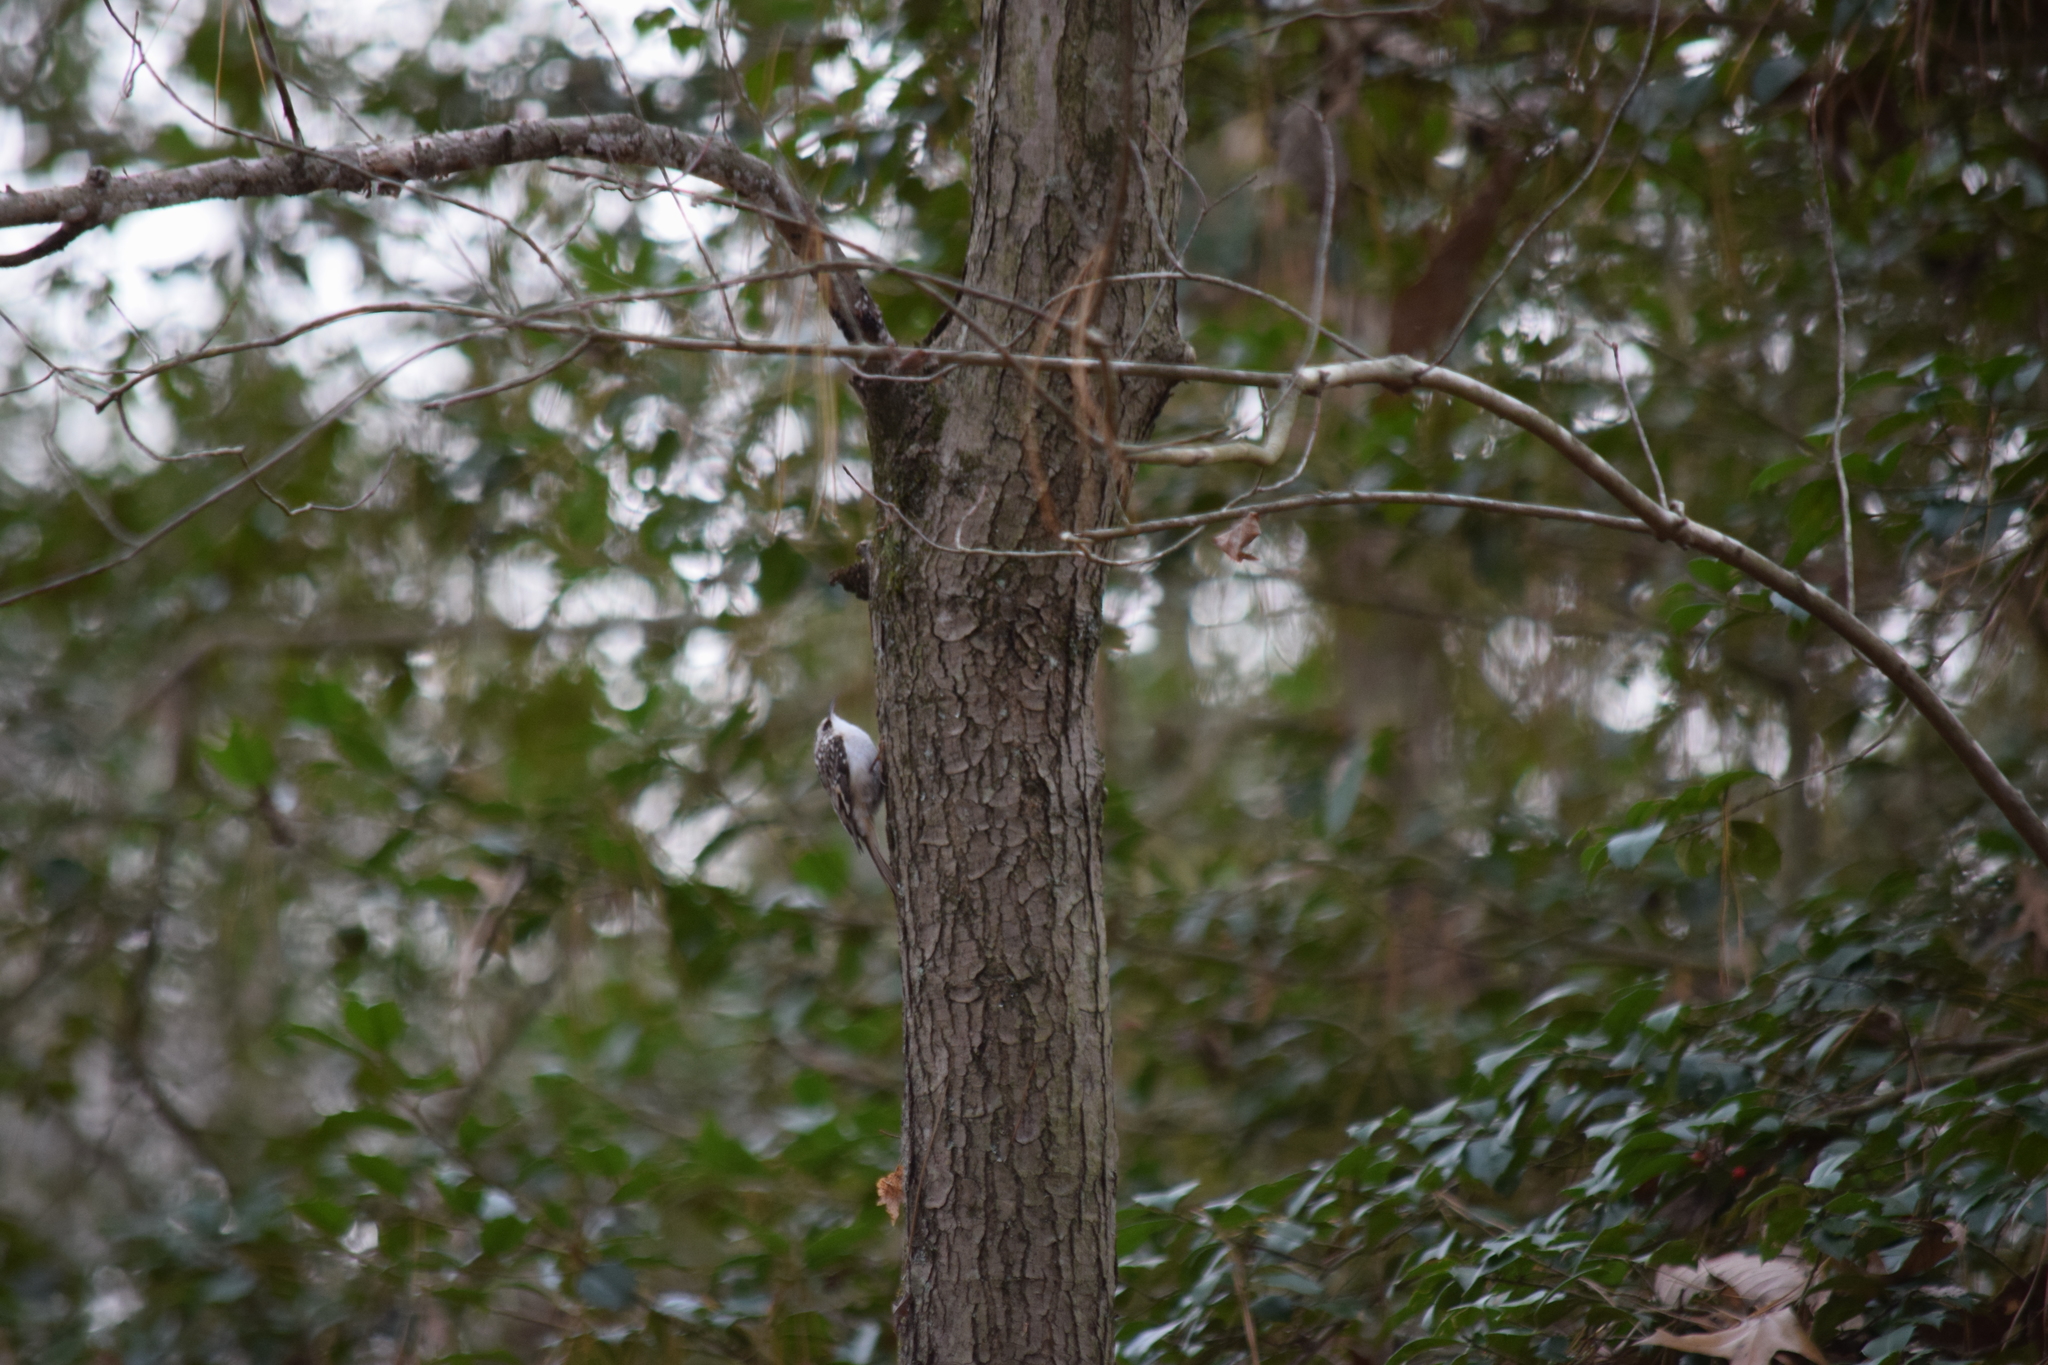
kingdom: Animalia
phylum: Chordata
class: Aves
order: Passeriformes
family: Certhiidae
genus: Certhia
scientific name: Certhia americana
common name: Brown creeper
